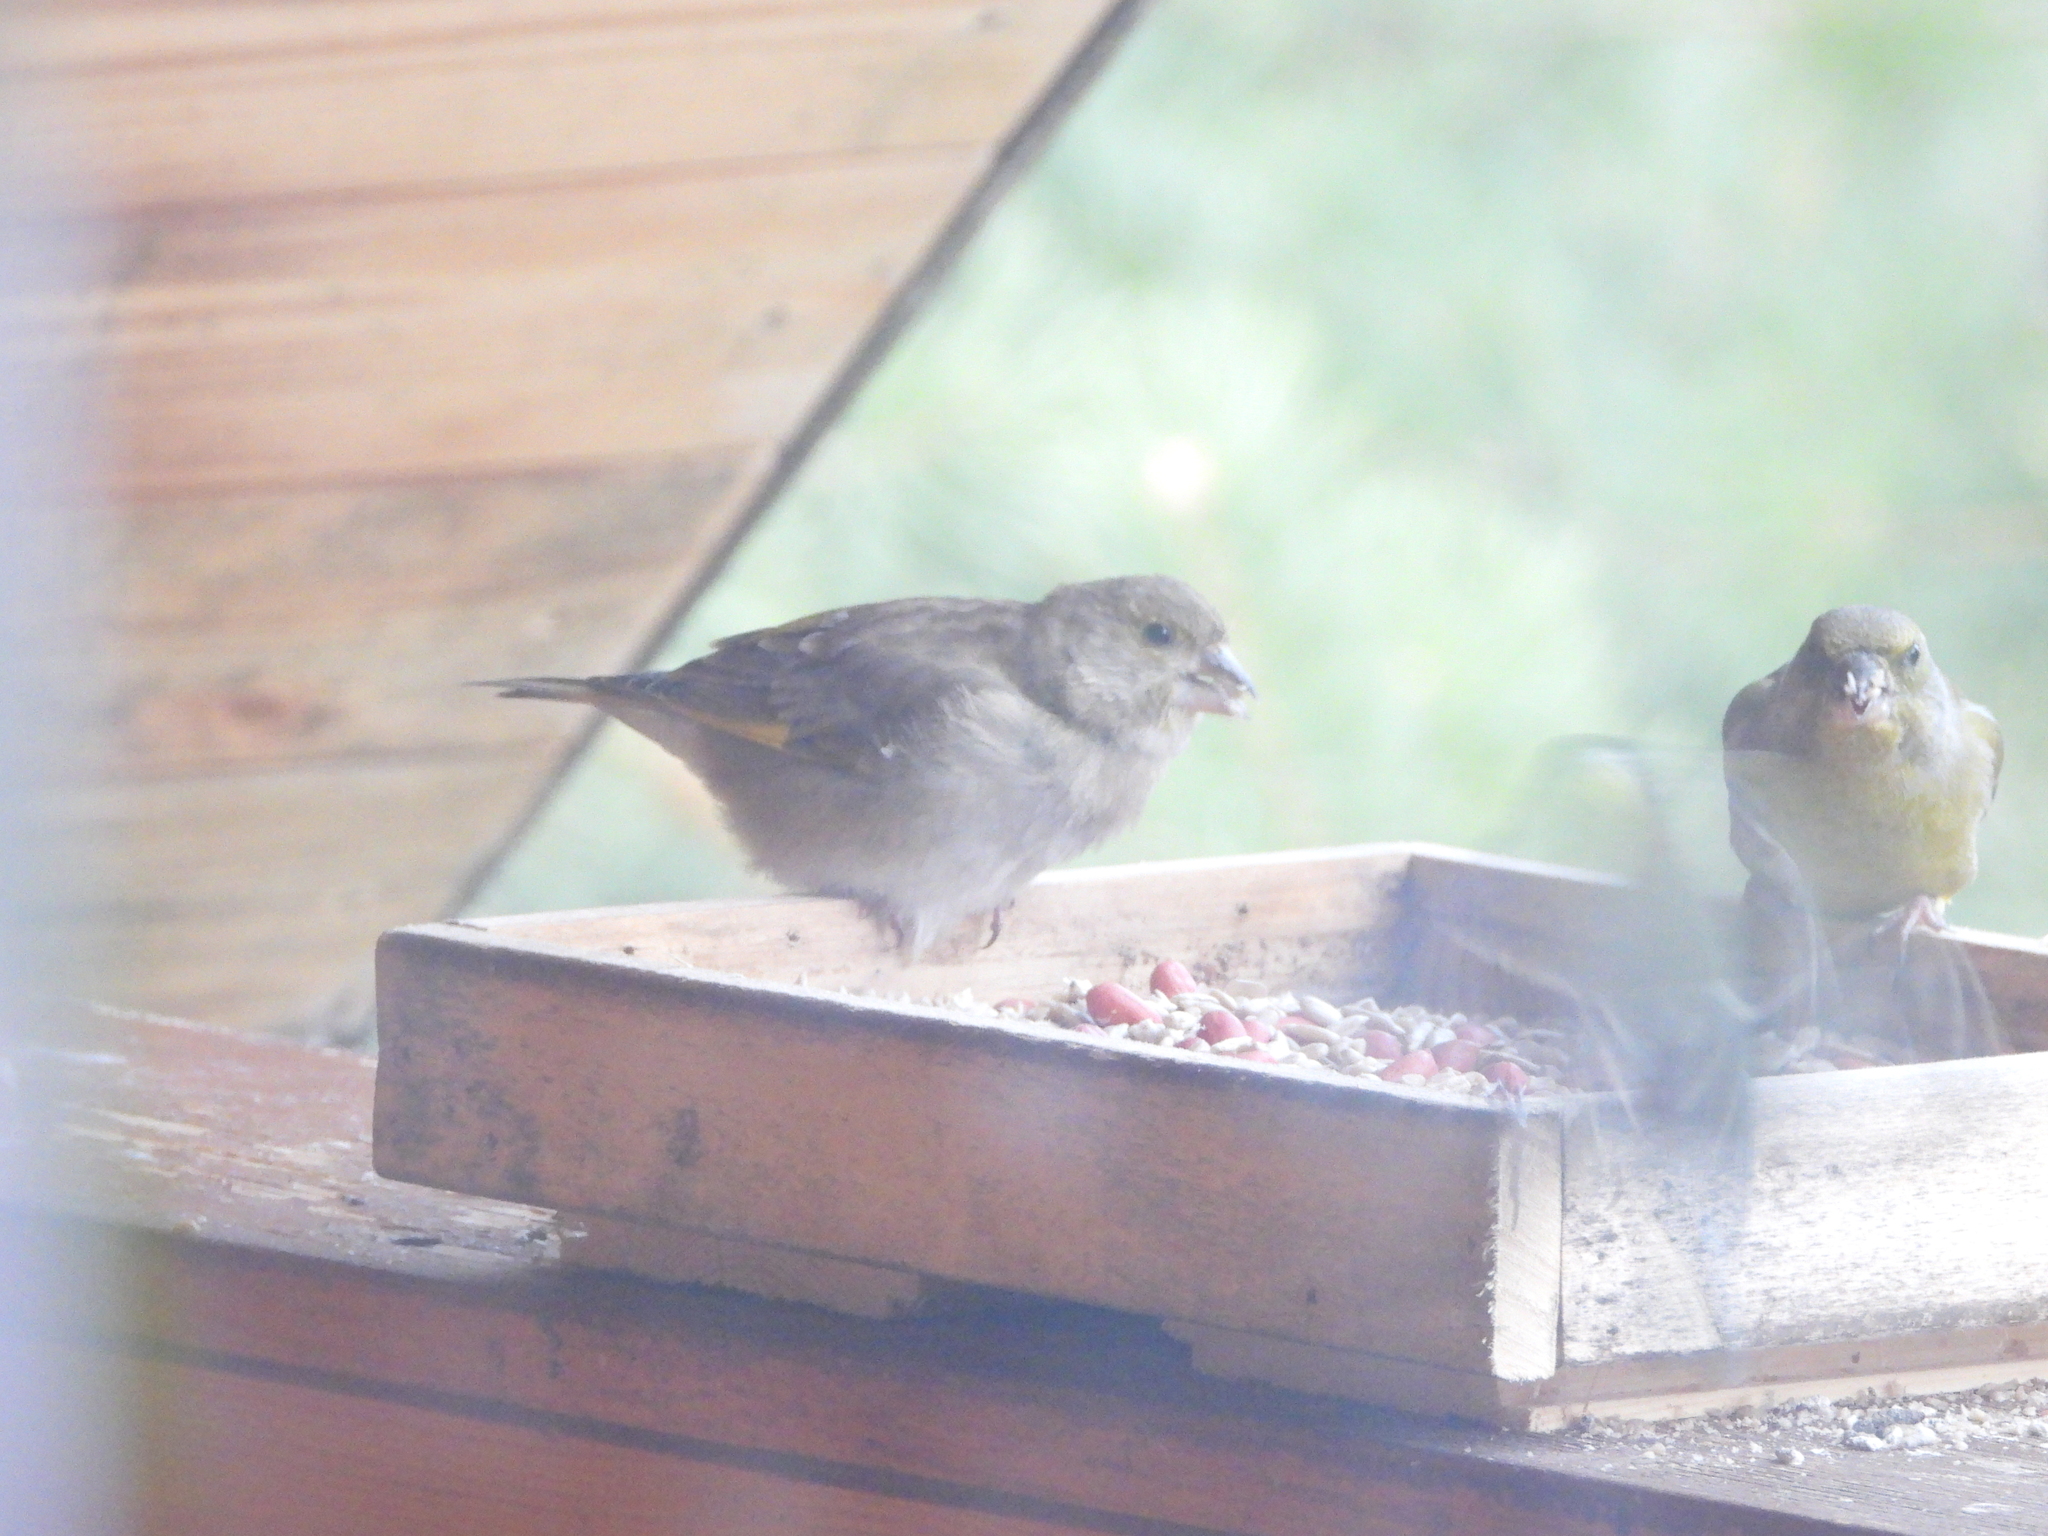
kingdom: Plantae
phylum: Tracheophyta
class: Liliopsida
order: Poales
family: Poaceae
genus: Chloris
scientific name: Chloris chloris
